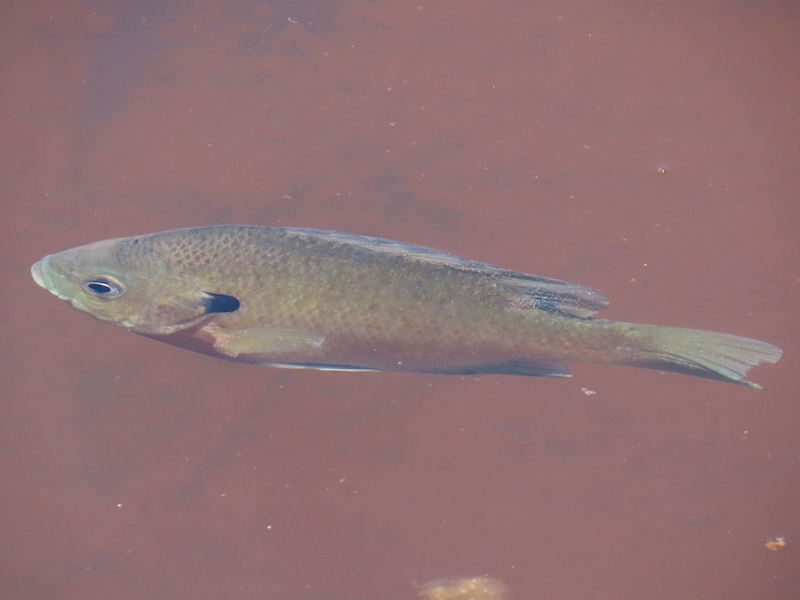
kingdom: Animalia
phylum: Chordata
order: Perciformes
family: Centrarchidae
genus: Lepomis
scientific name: Lepomis macrochirus
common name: Bluegill
